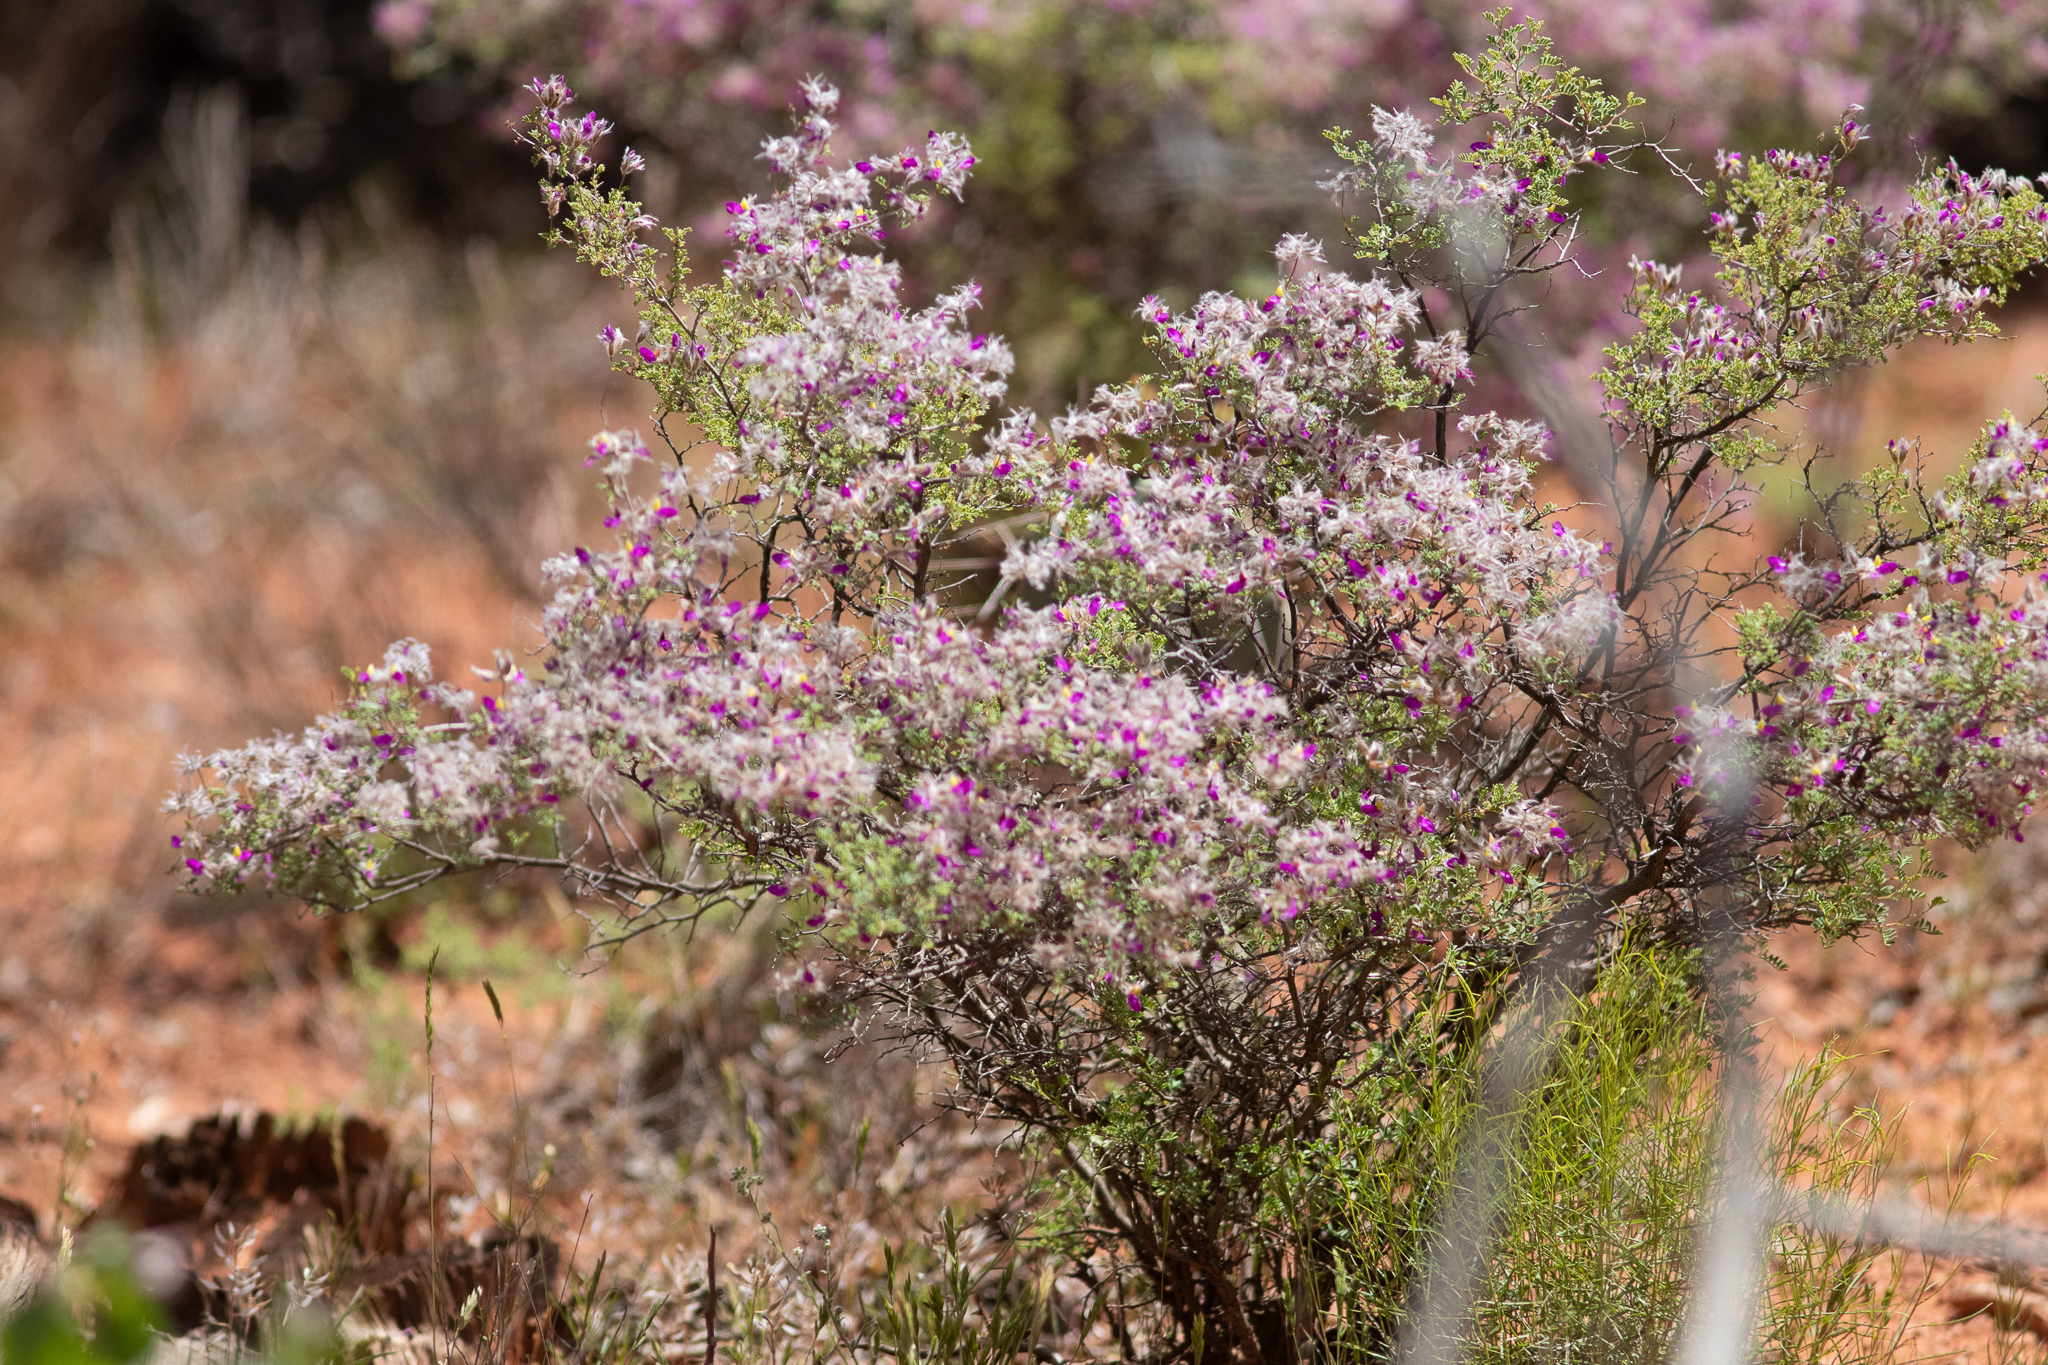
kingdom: Plantae
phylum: Tracheophyta
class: Magnoliopsida
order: Fabales
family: Fabaceae
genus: Dalea
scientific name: Dalea formosa
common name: Feather-plume dalea
